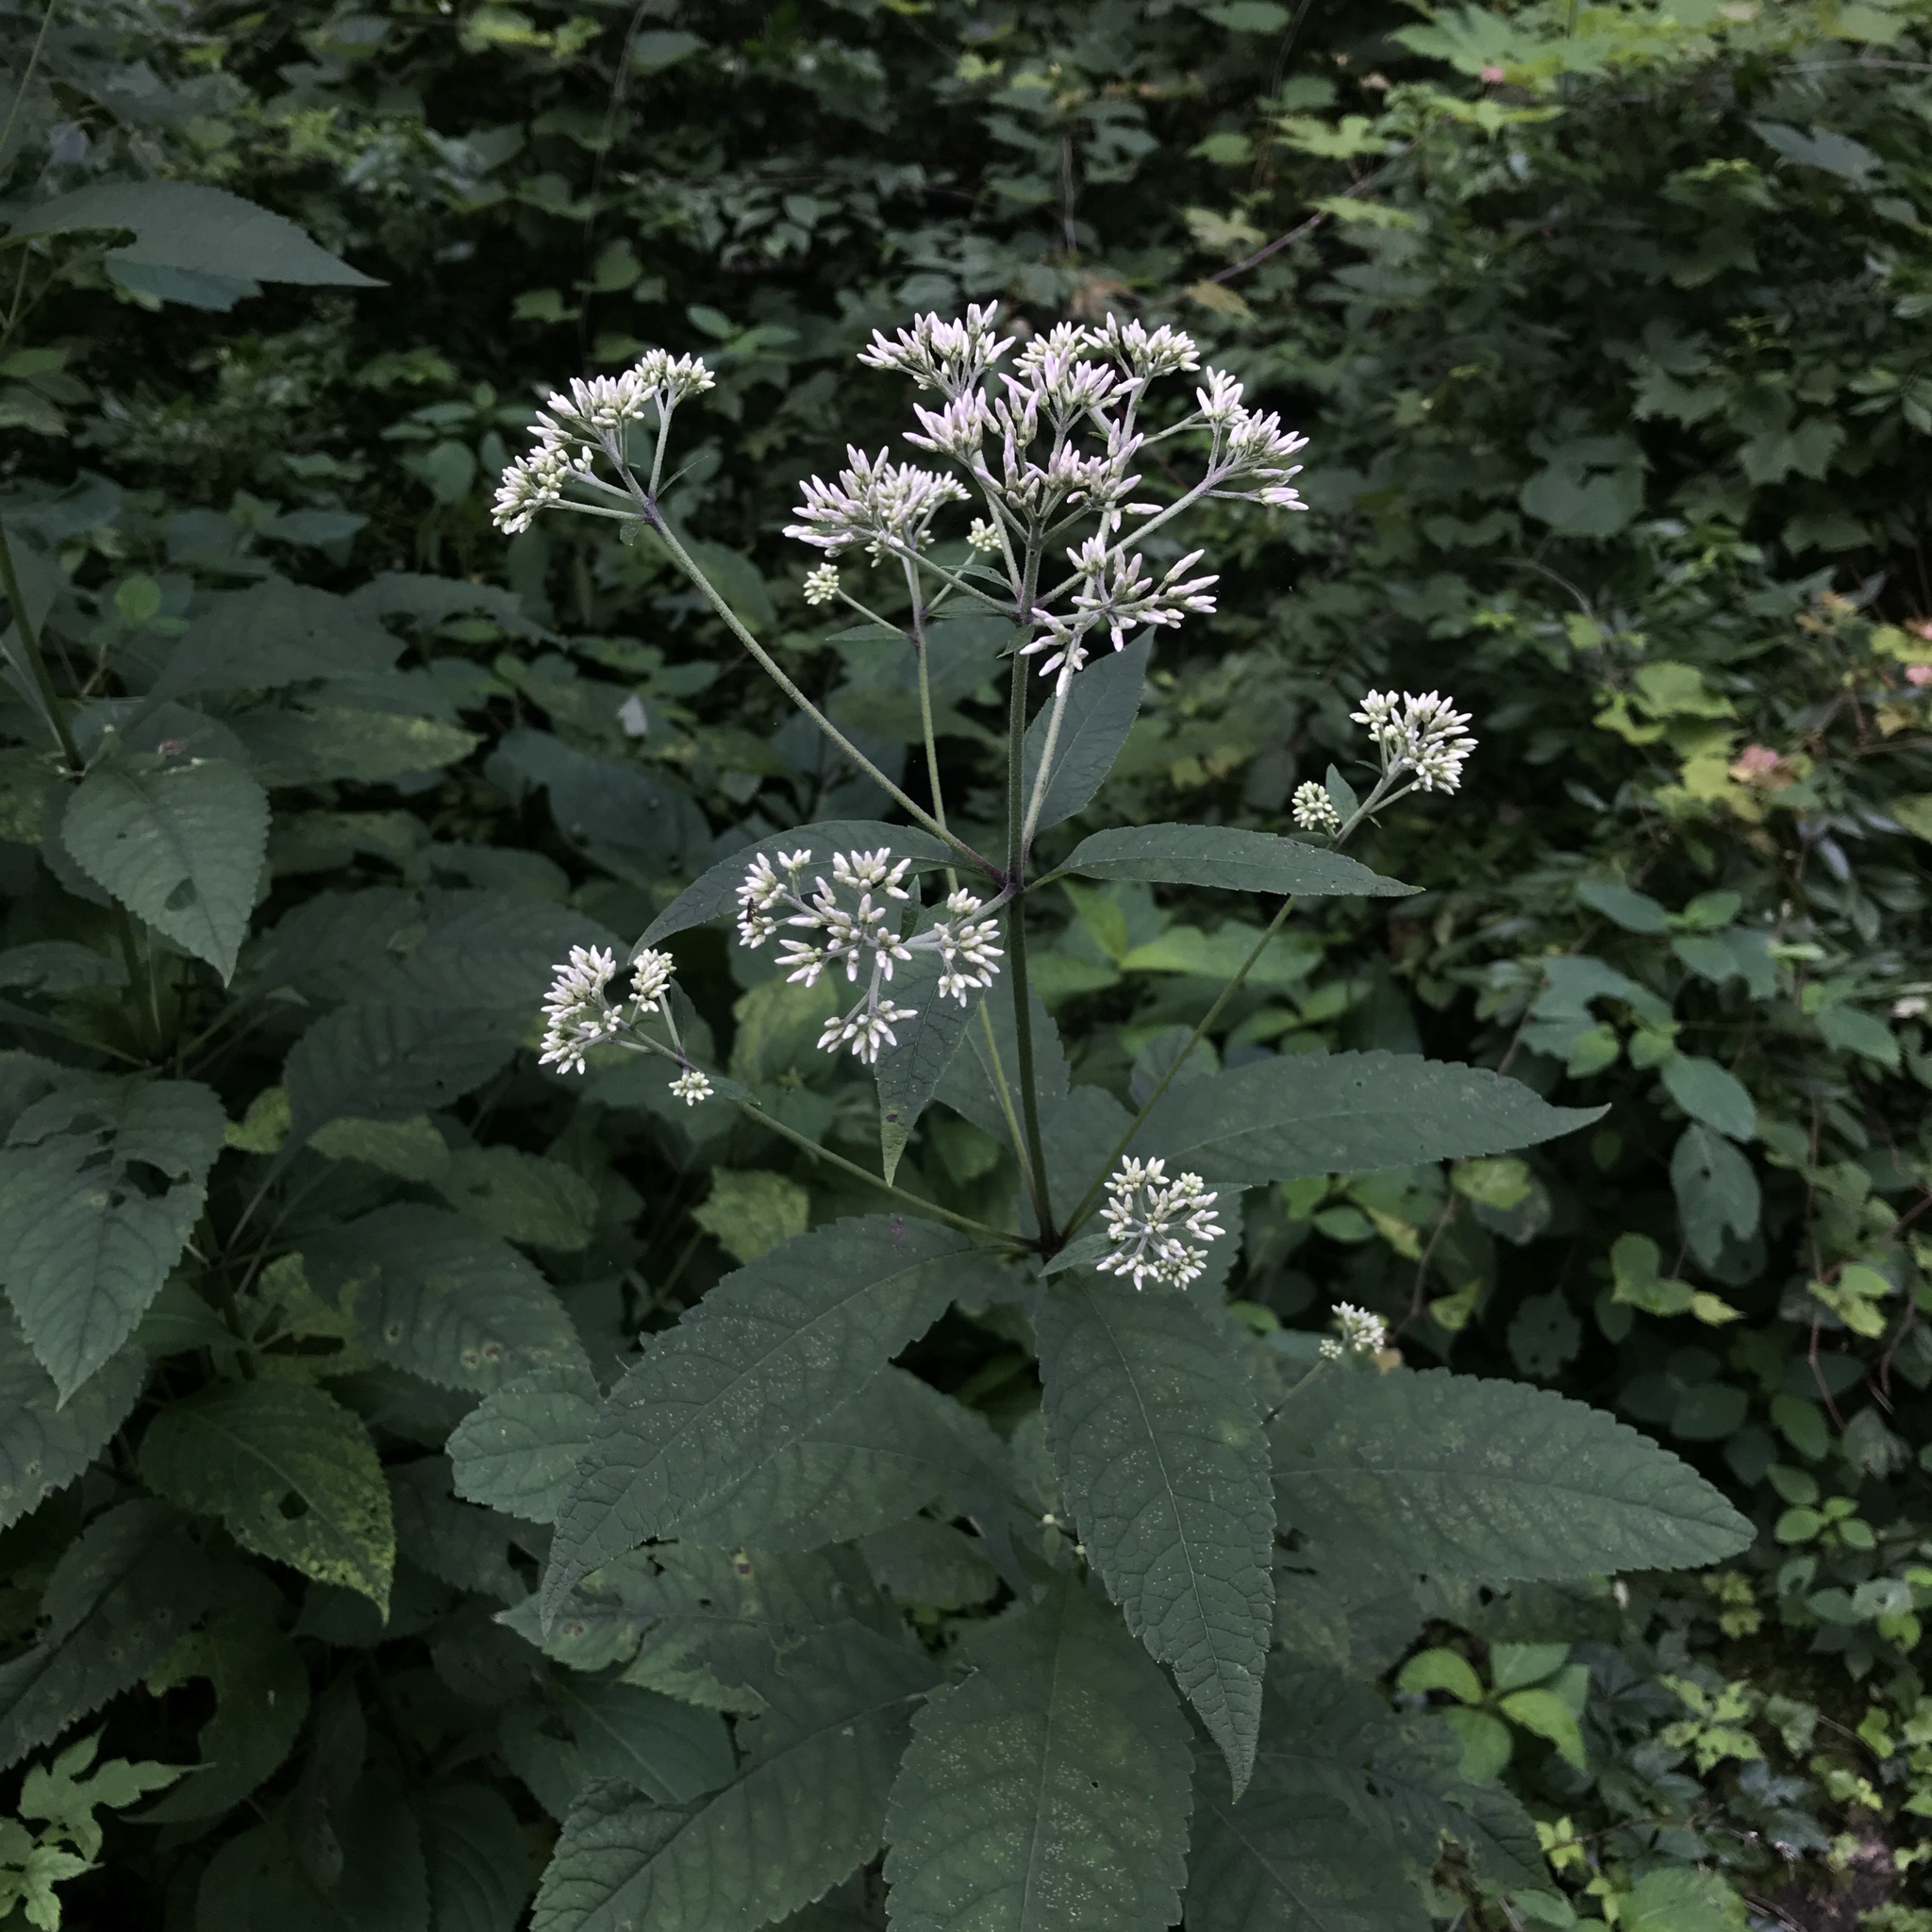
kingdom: Plantae
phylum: Tracheophyta
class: Magnoliopsida
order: Asterales
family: Asteraceae
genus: Eutrochium
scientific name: Eutrochium purpureum
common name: Gravelroot
